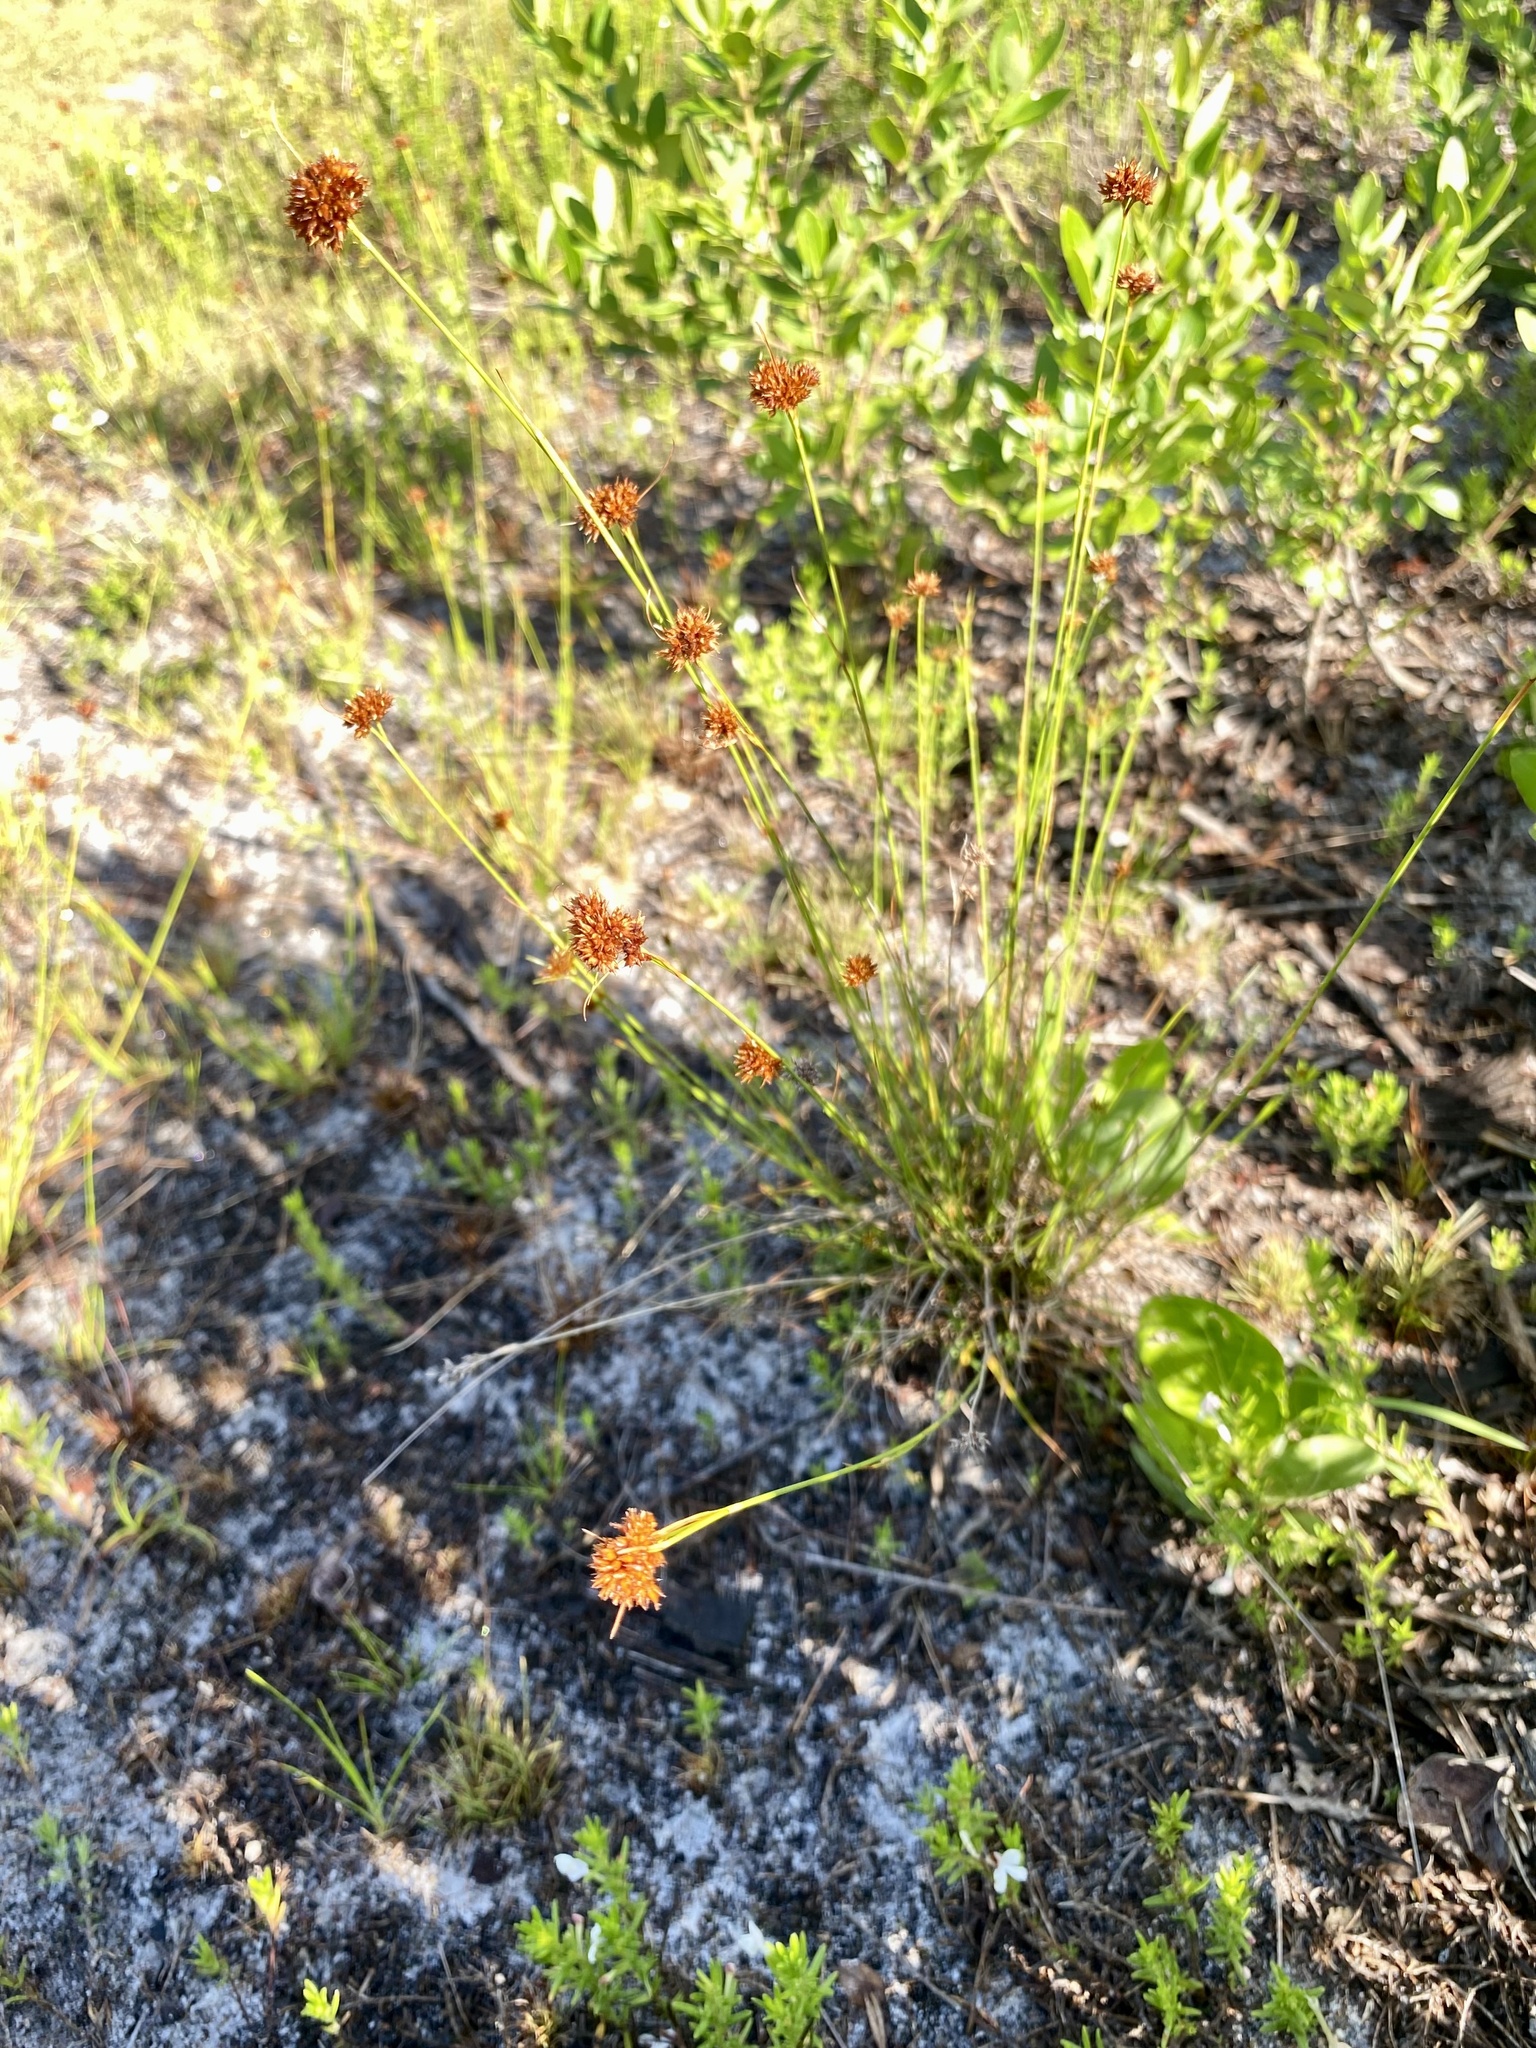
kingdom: Plantae
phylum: Tracheophyta
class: Liliopsida
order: Poales
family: Cyperaceae
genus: Rhynchospora
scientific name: Rhynchospora fernaldii
